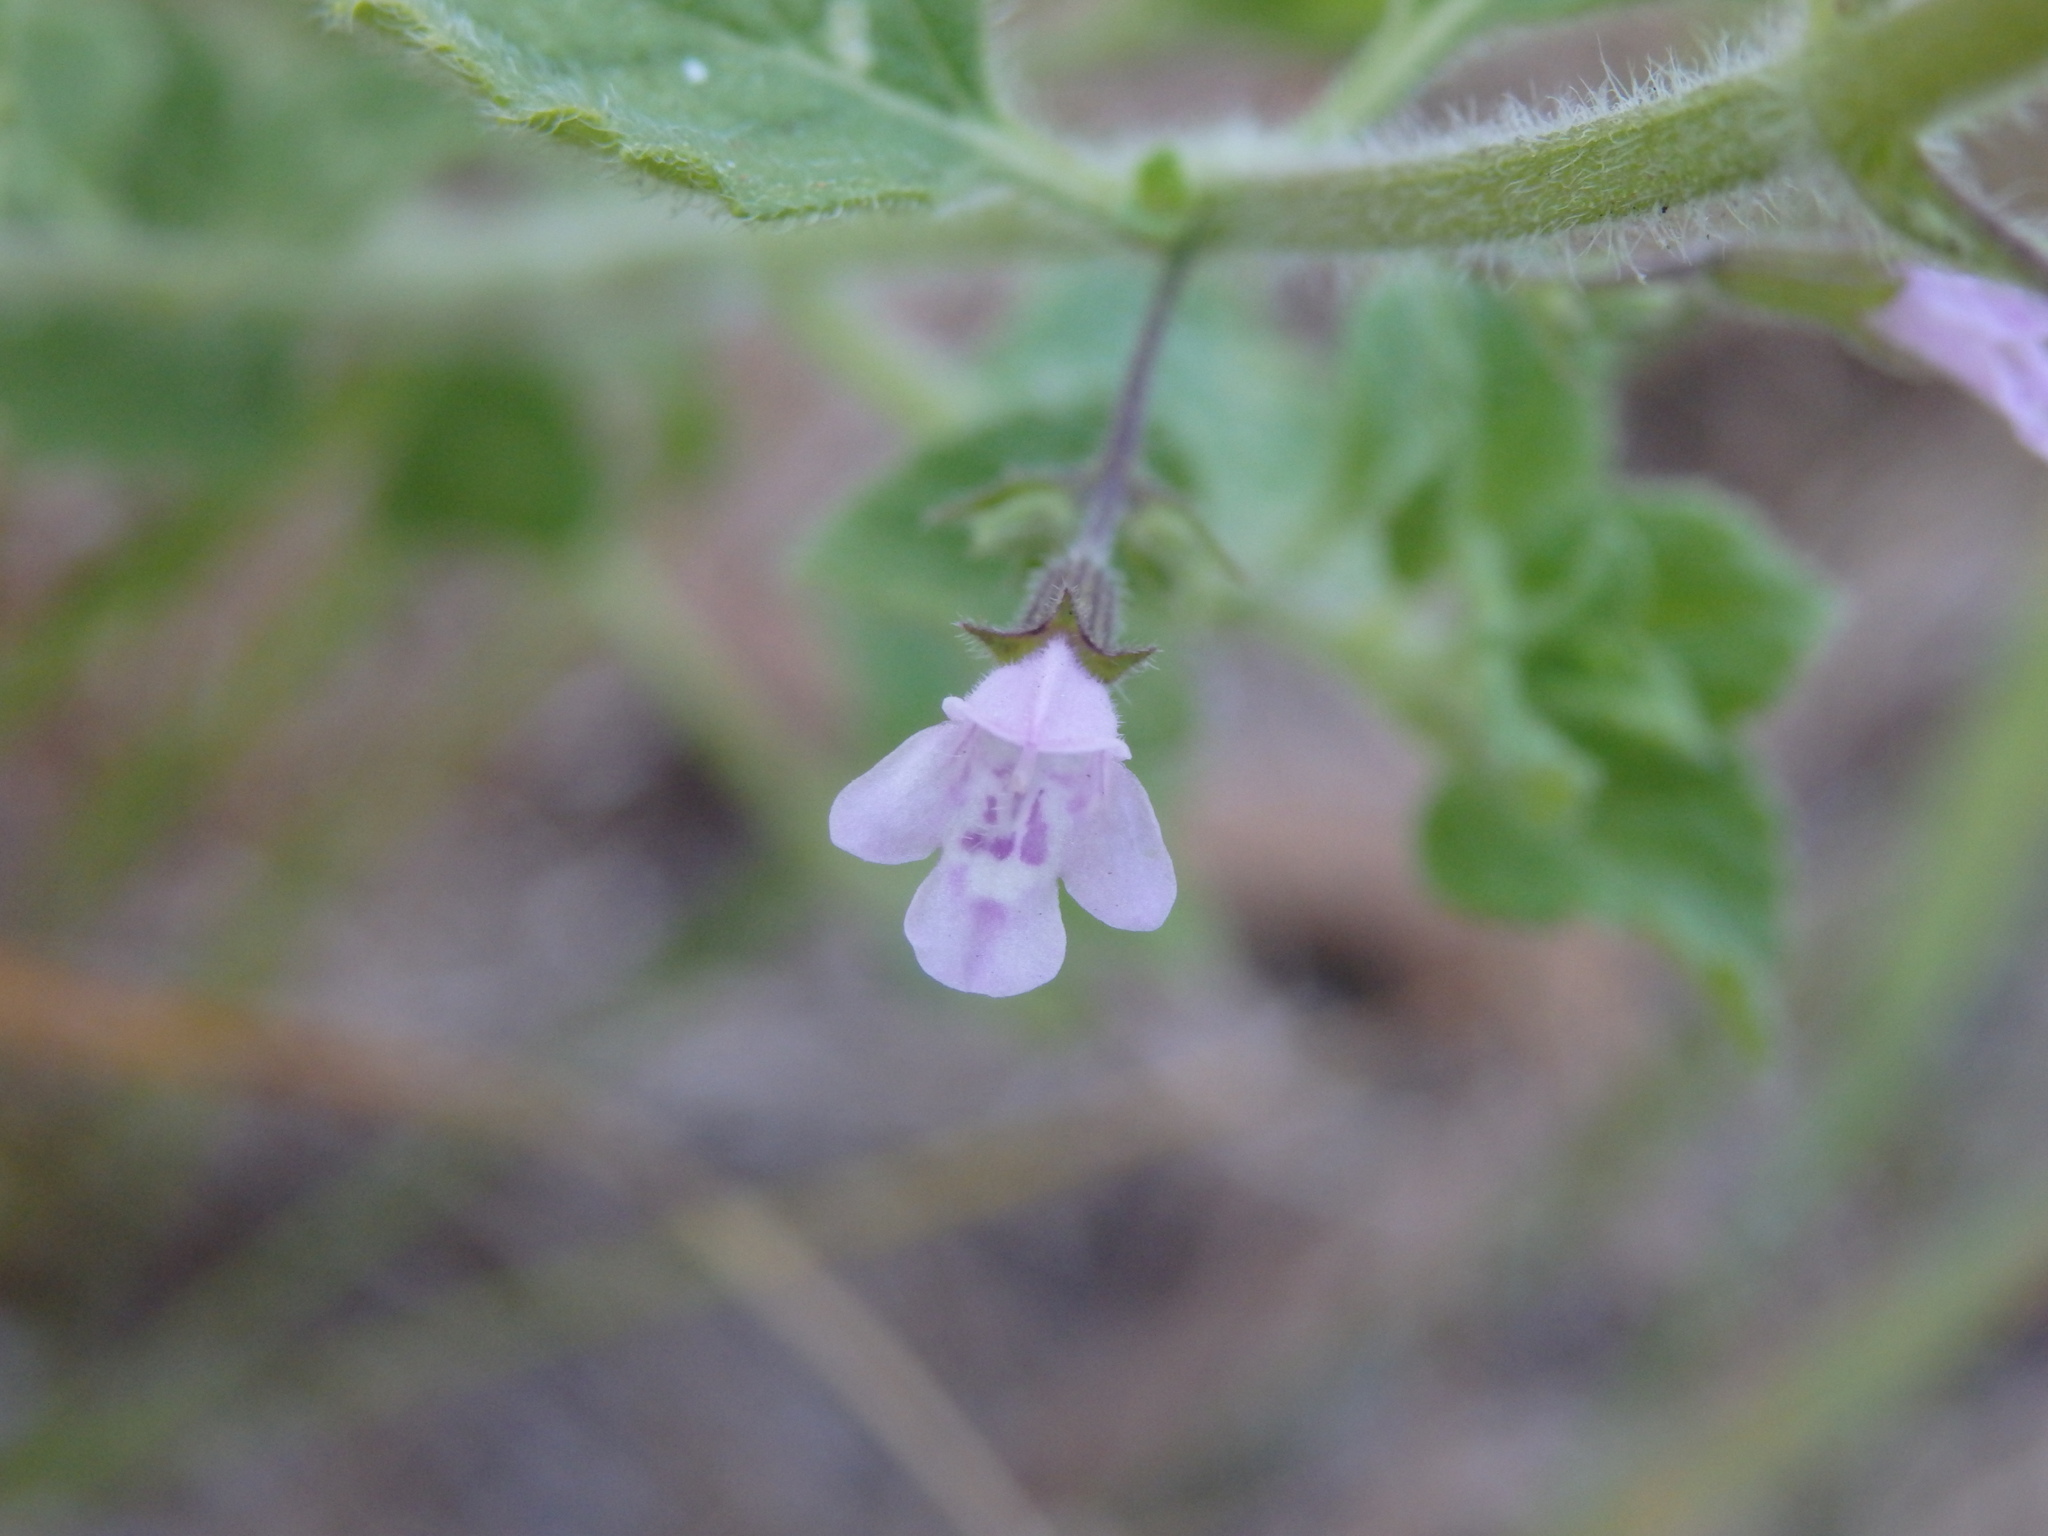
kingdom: Plantae
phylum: Tracheophyta
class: Magnoliopsida
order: Lamiales
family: Lamiaceae
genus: Clinopodium
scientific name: Clinopodium nepeta
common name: Lesser calamint
